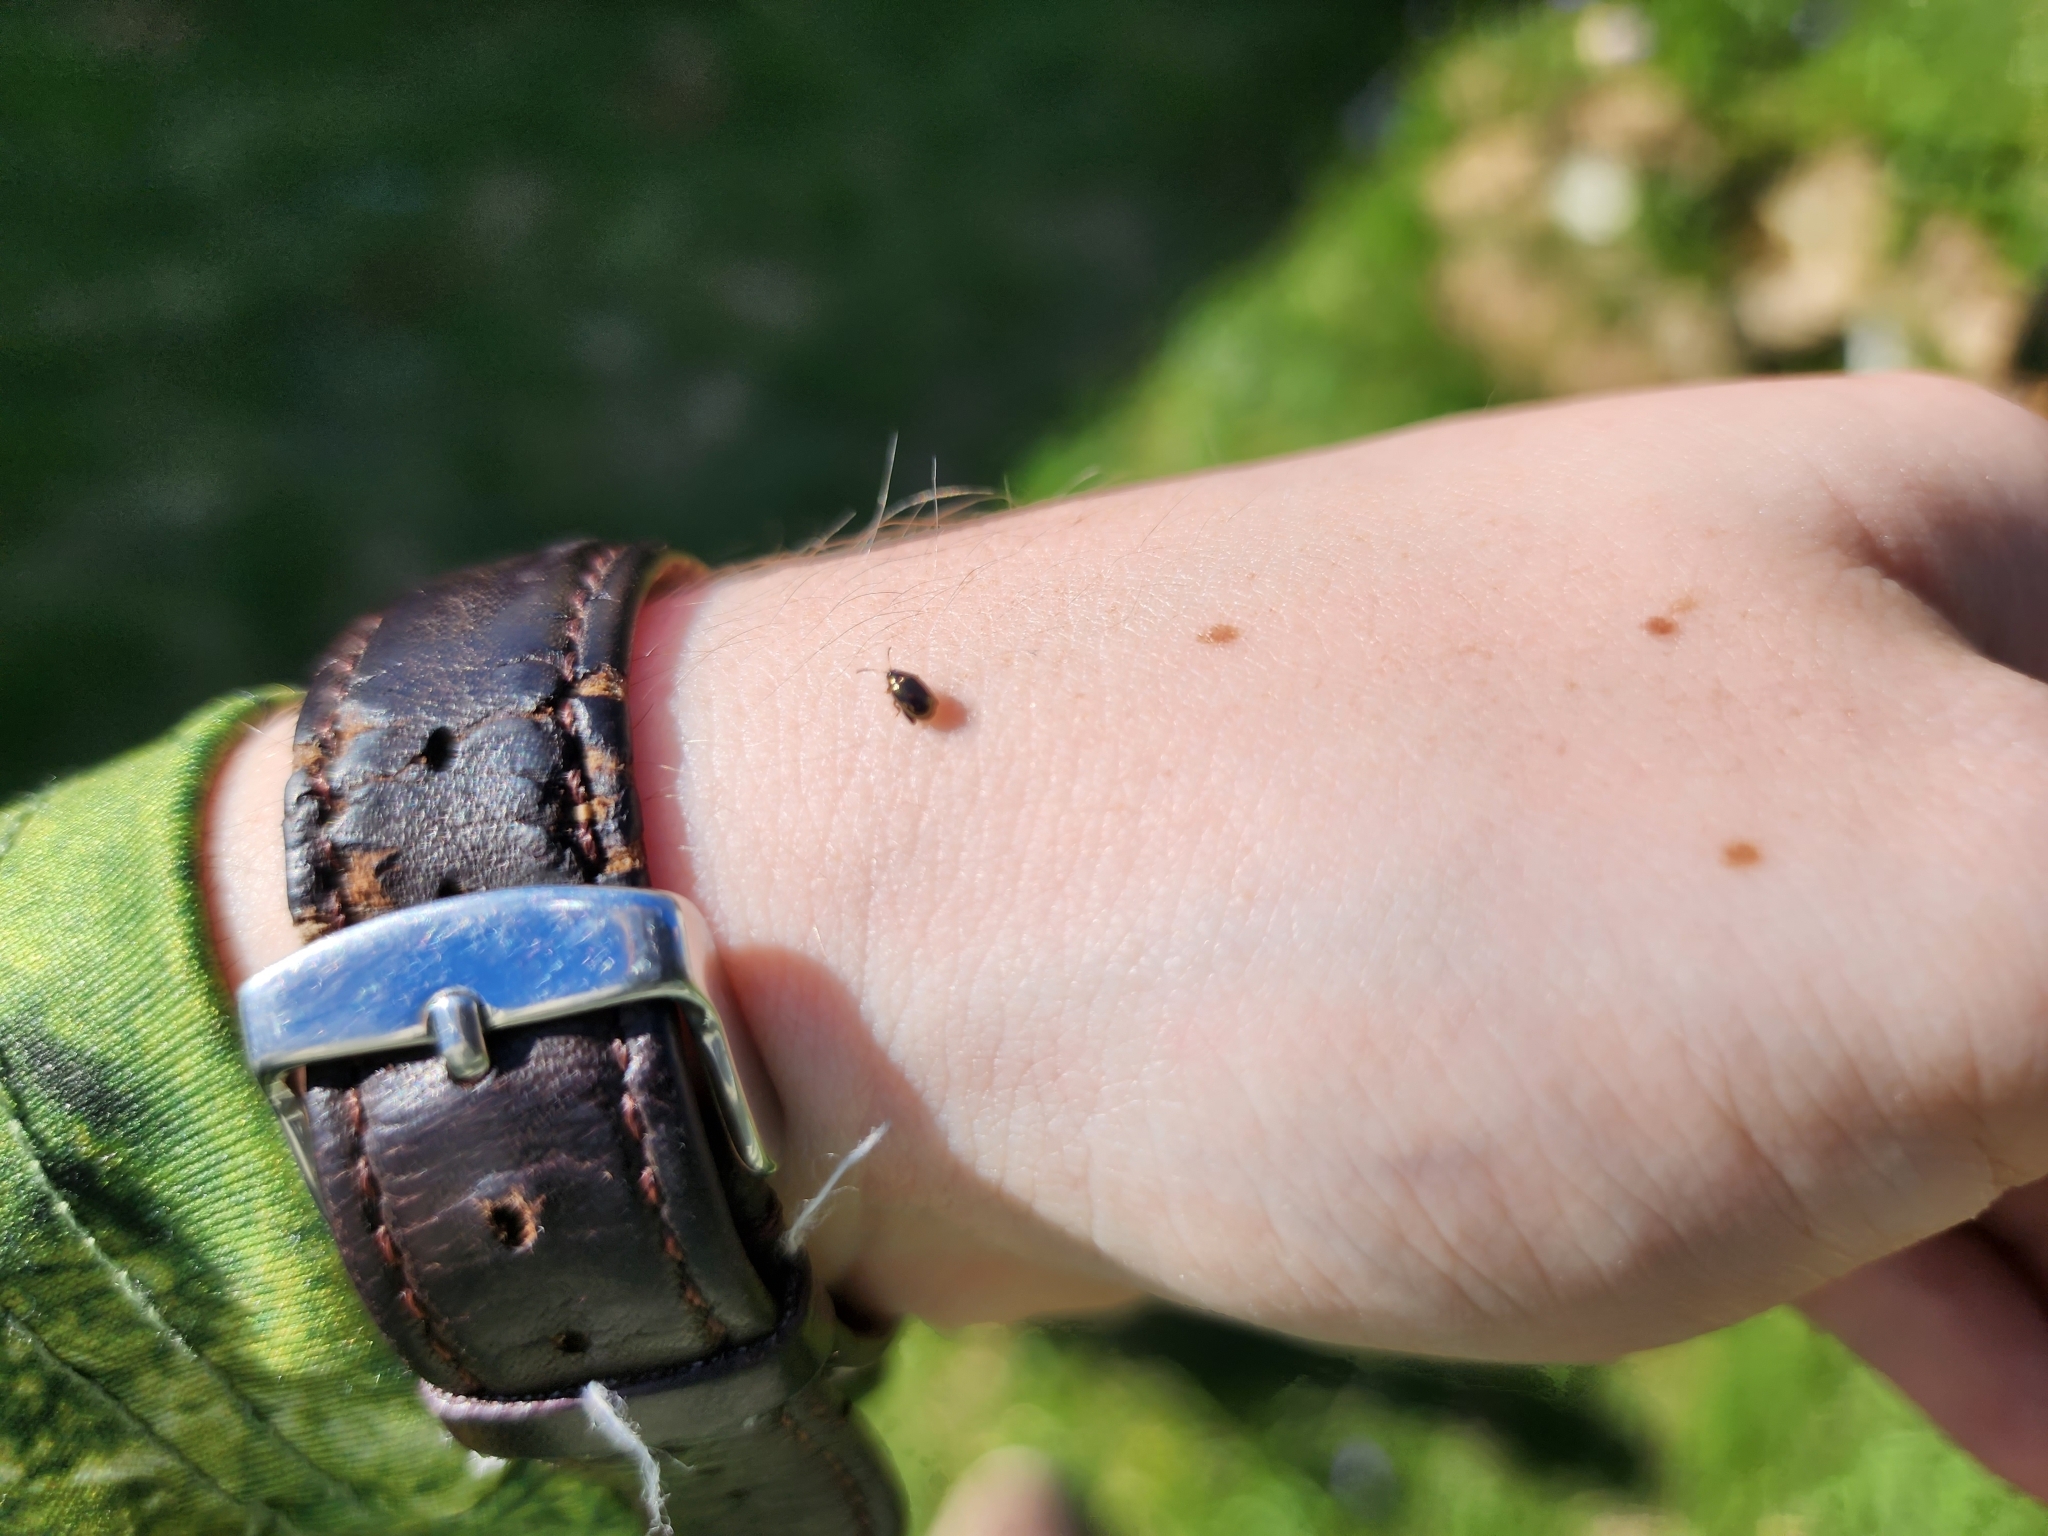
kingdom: Animalia
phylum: Arthropoda
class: Insecta
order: Coleoptera
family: Chrysomelidae
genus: Dibolia
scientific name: Dibolia borealis
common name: Northern plantain flea beetle
